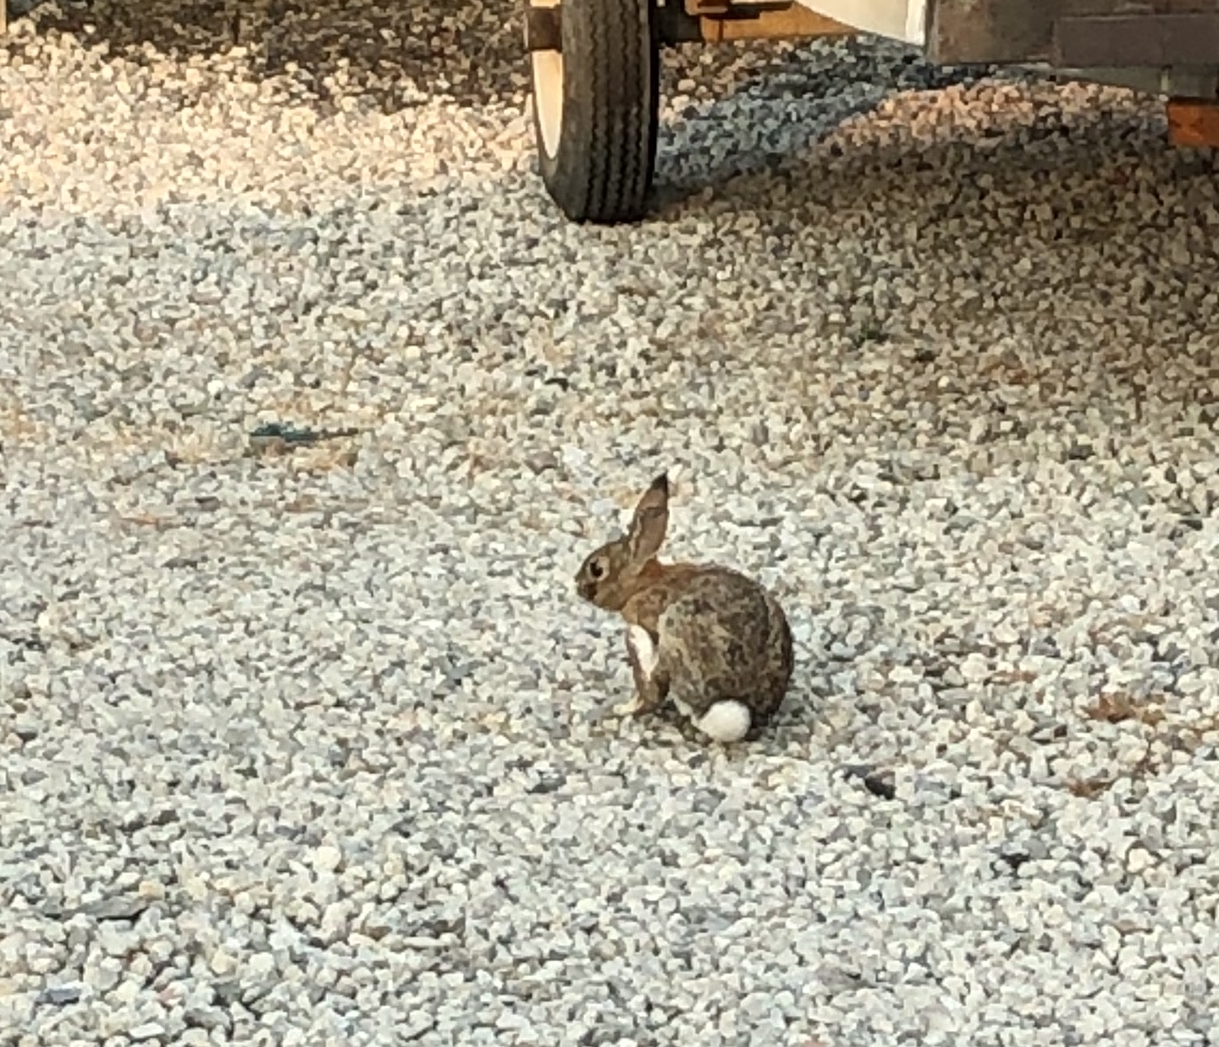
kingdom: Animalia
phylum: Chordata
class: Mammalia
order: Lagomorpha
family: Leporidae
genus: Sylvilagus
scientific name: Sylvilagus audubonii
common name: Desert cottontail
